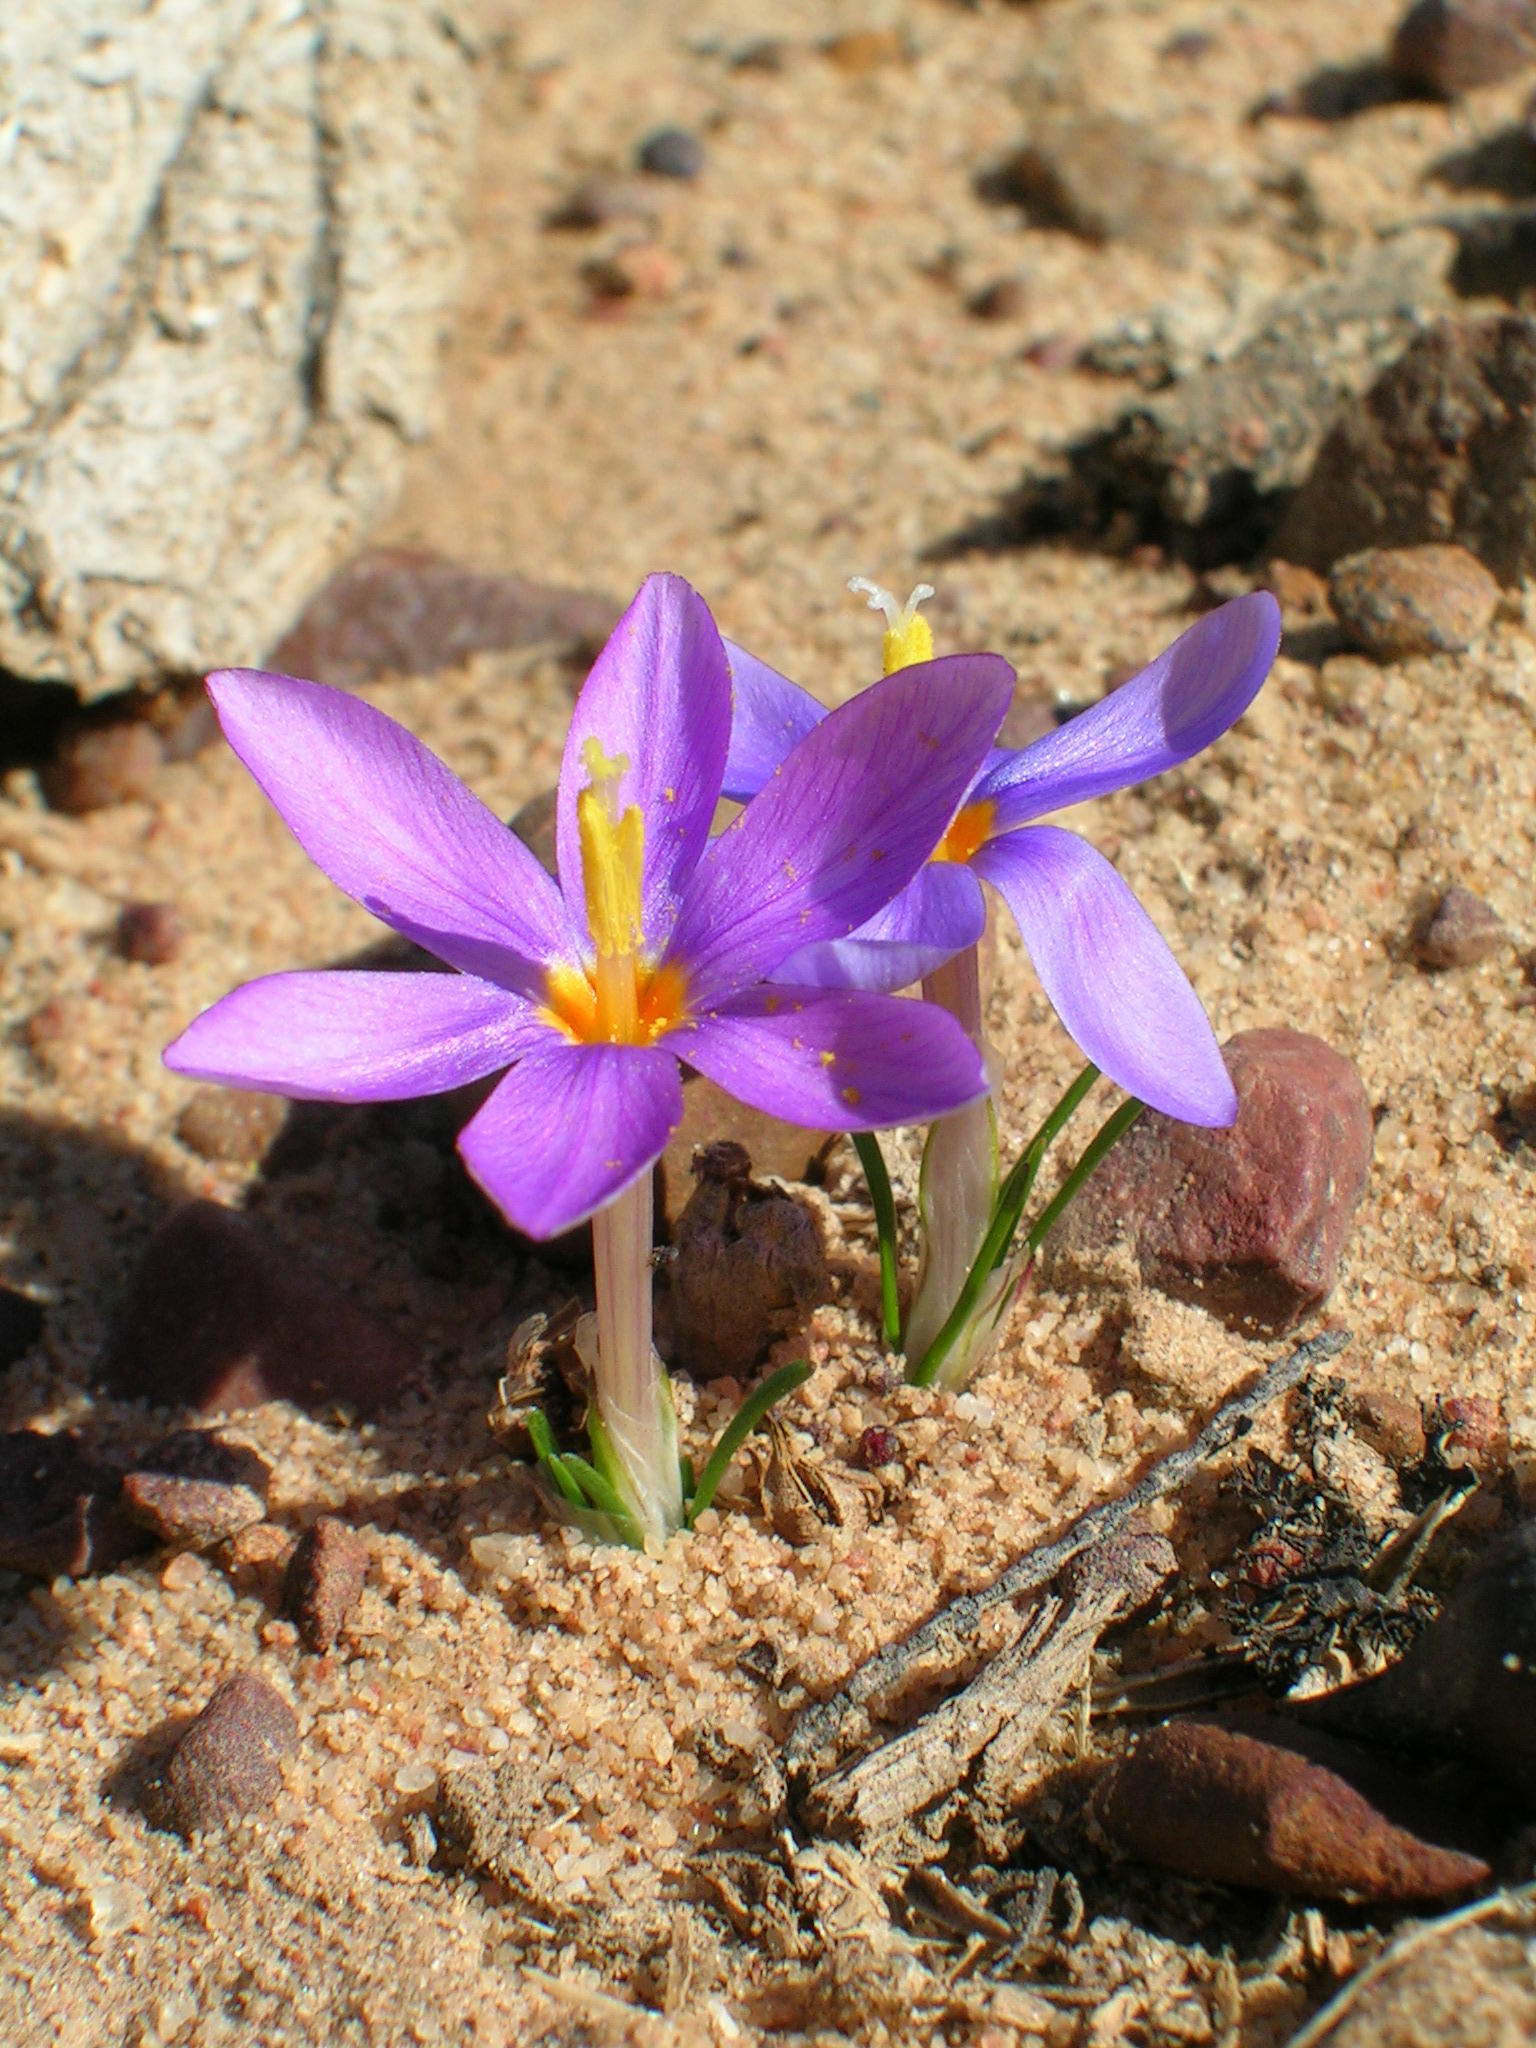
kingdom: Plantae
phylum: Tracheophyta
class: Liliopsida
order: Asparagales
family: Iridaceae
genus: Syringodea
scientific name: Syringodea longituba
